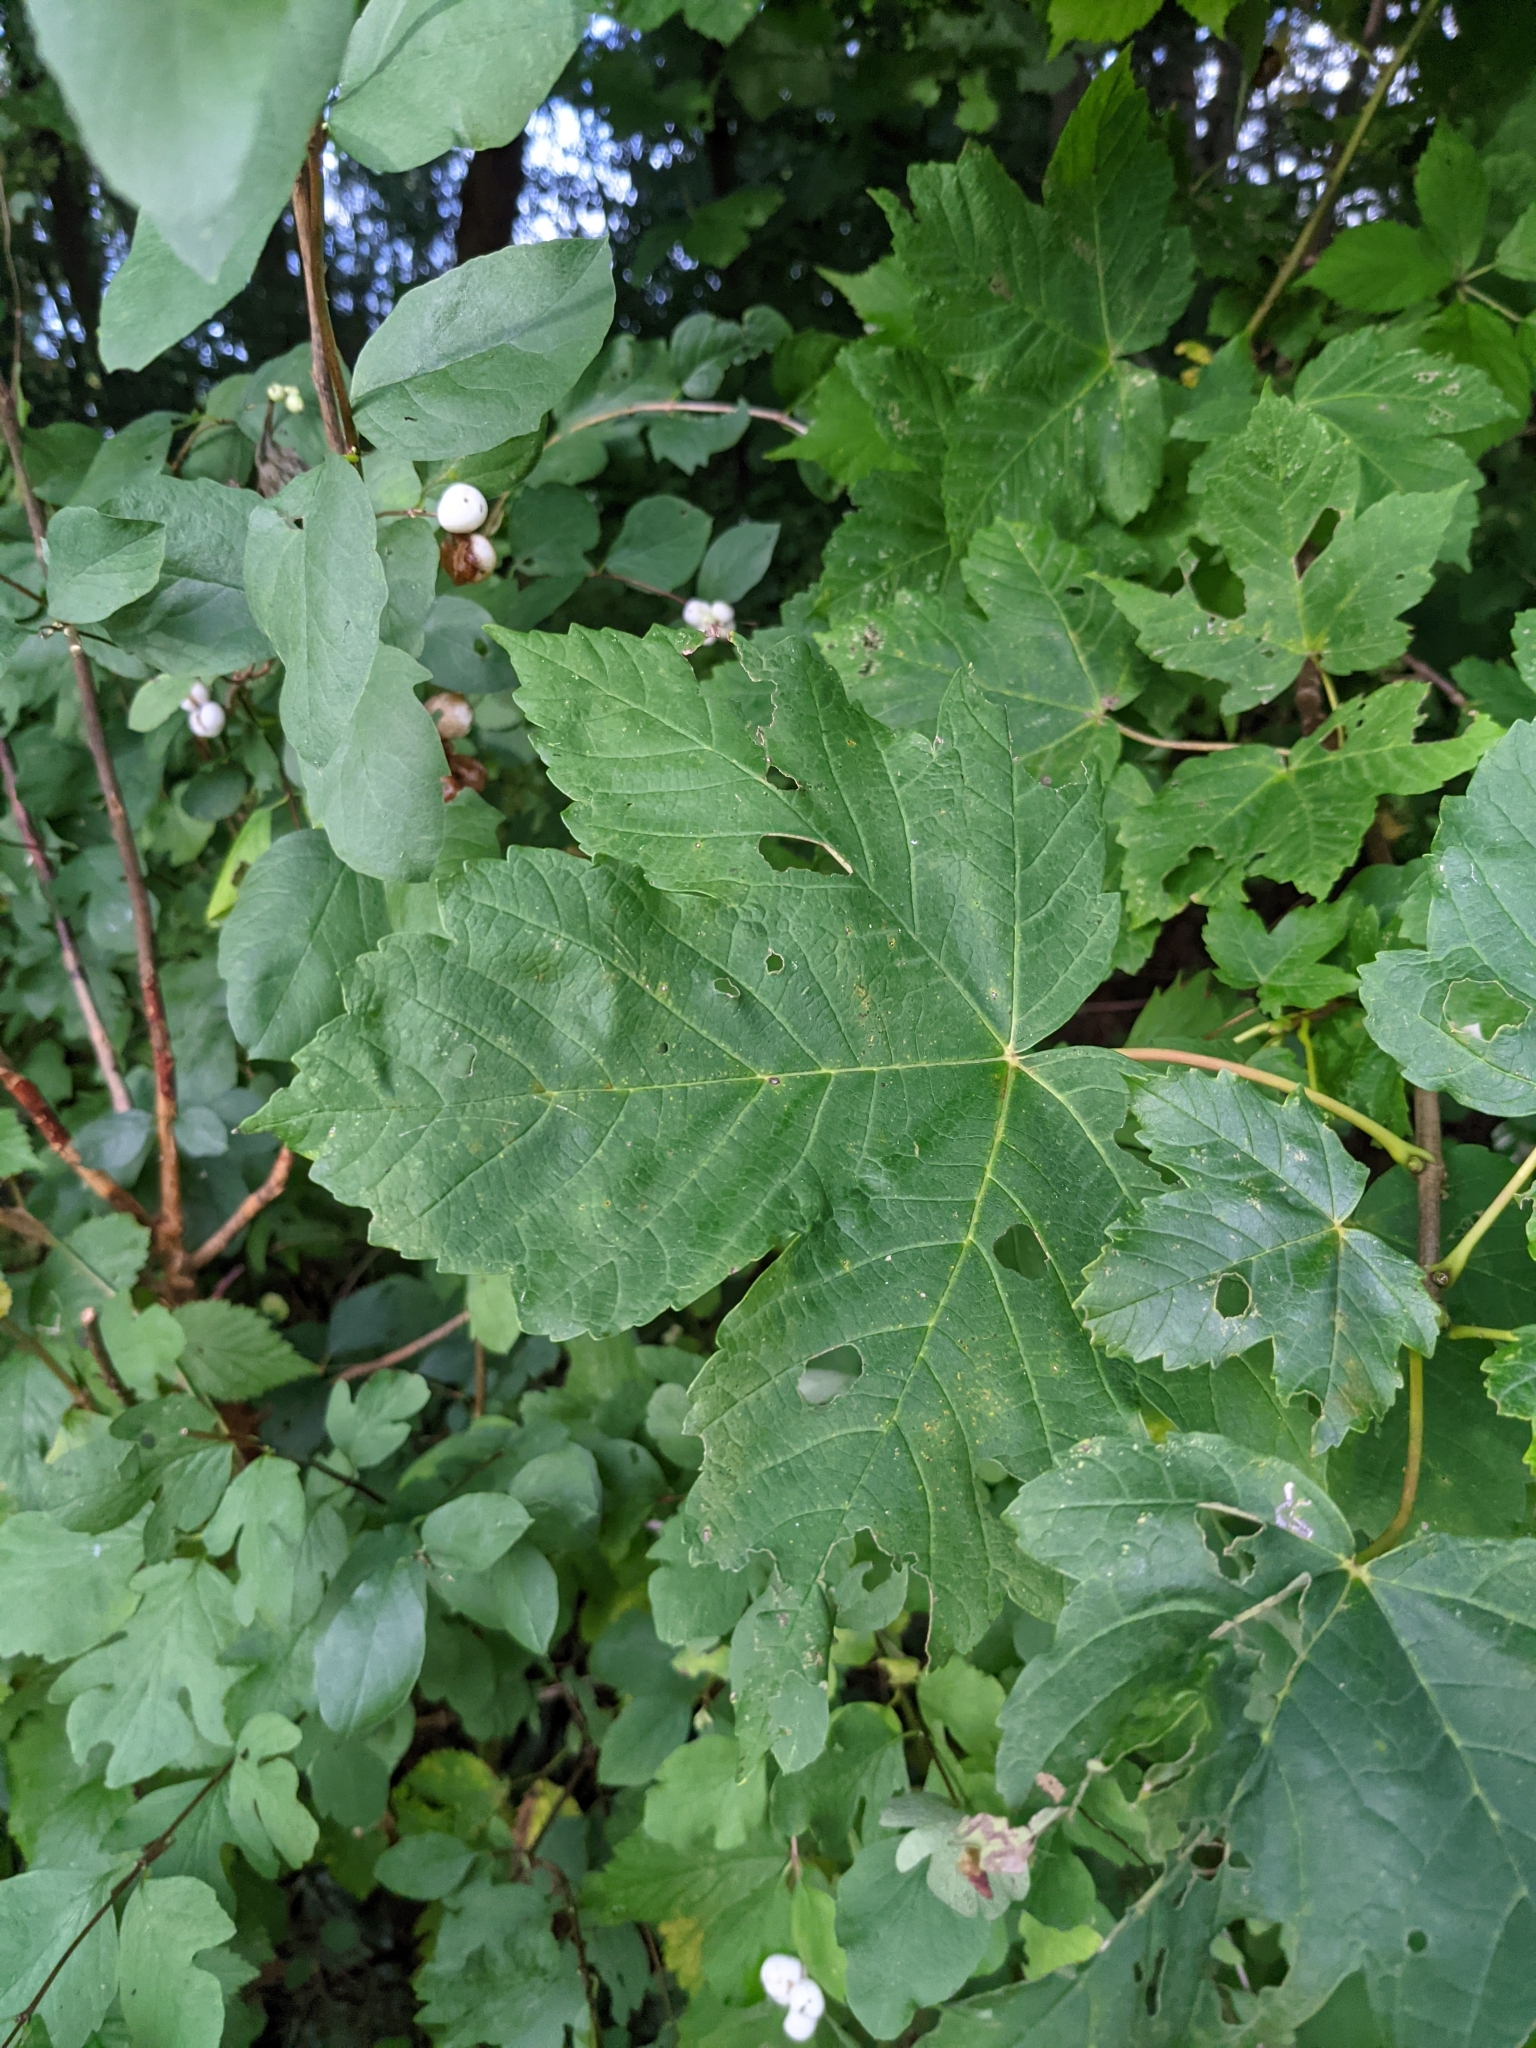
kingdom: Plantae
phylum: Tracheophyta
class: Magnoliopsida
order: Sapindales
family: Sapindaceae
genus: Acer
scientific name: Acer pseudoplatanus
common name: Sycamore
